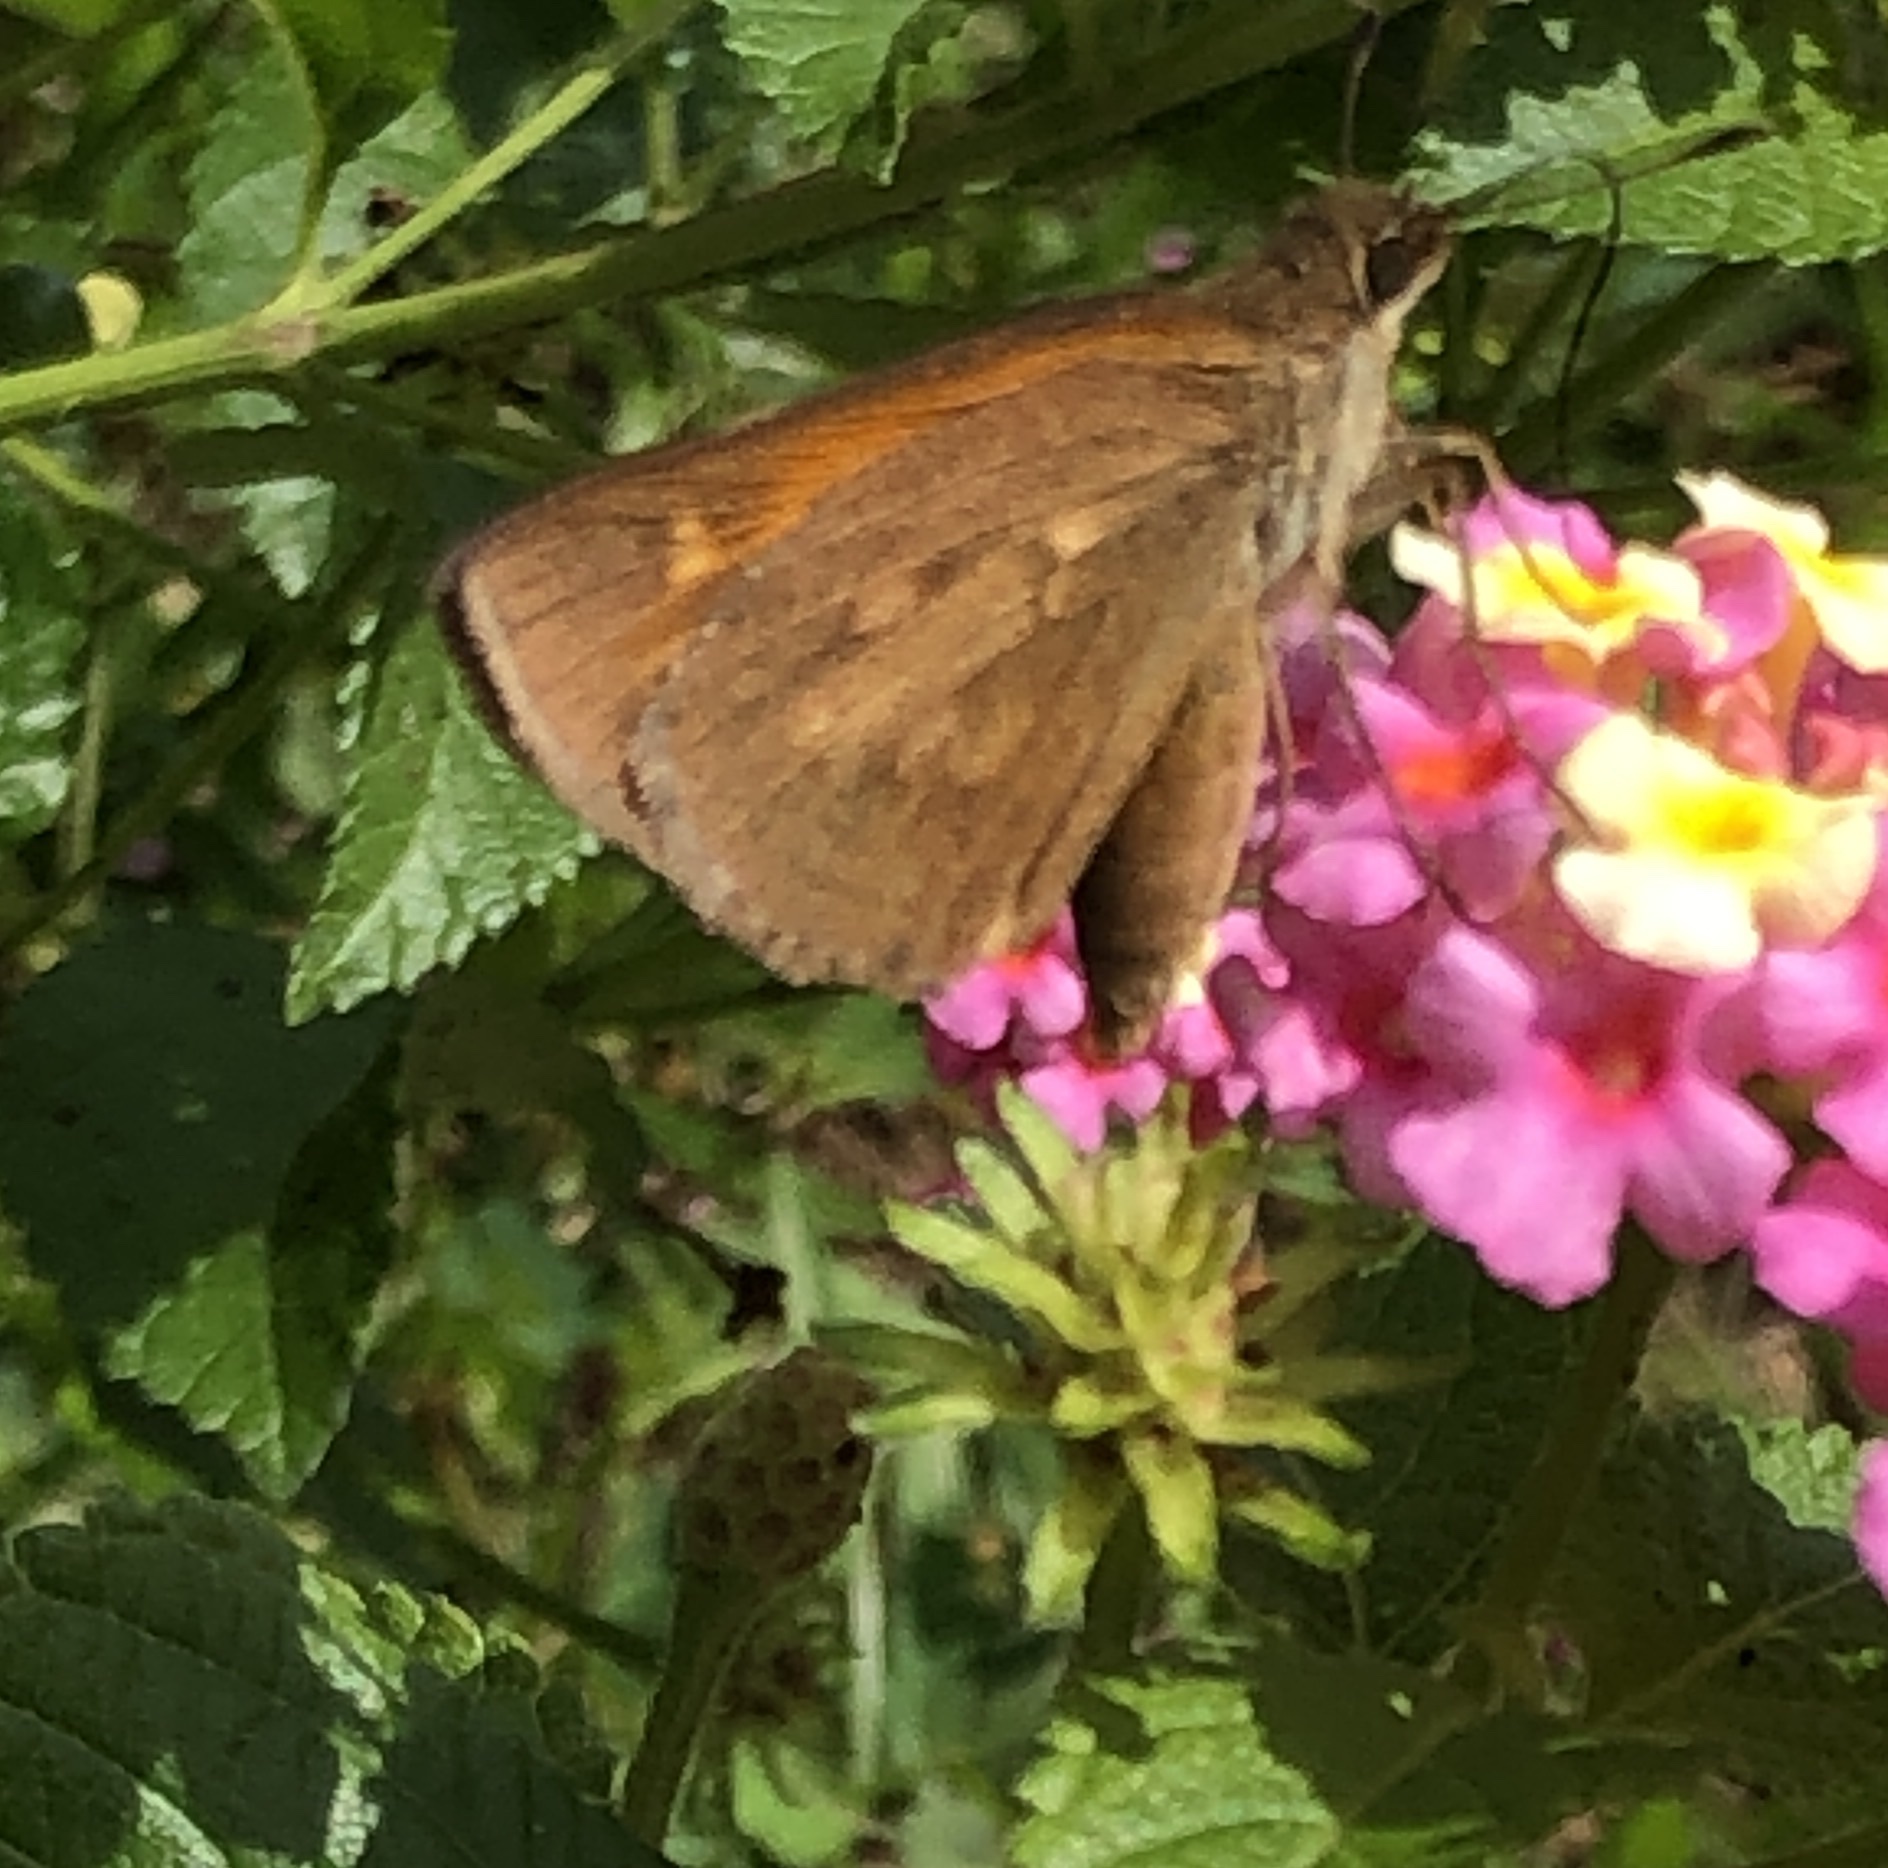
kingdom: Animalia
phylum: Arthropoda
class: Insecta
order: Lepidoptera
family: Hesperiidae
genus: Poanes
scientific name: Poanes viator
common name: Broad-winged skipper
